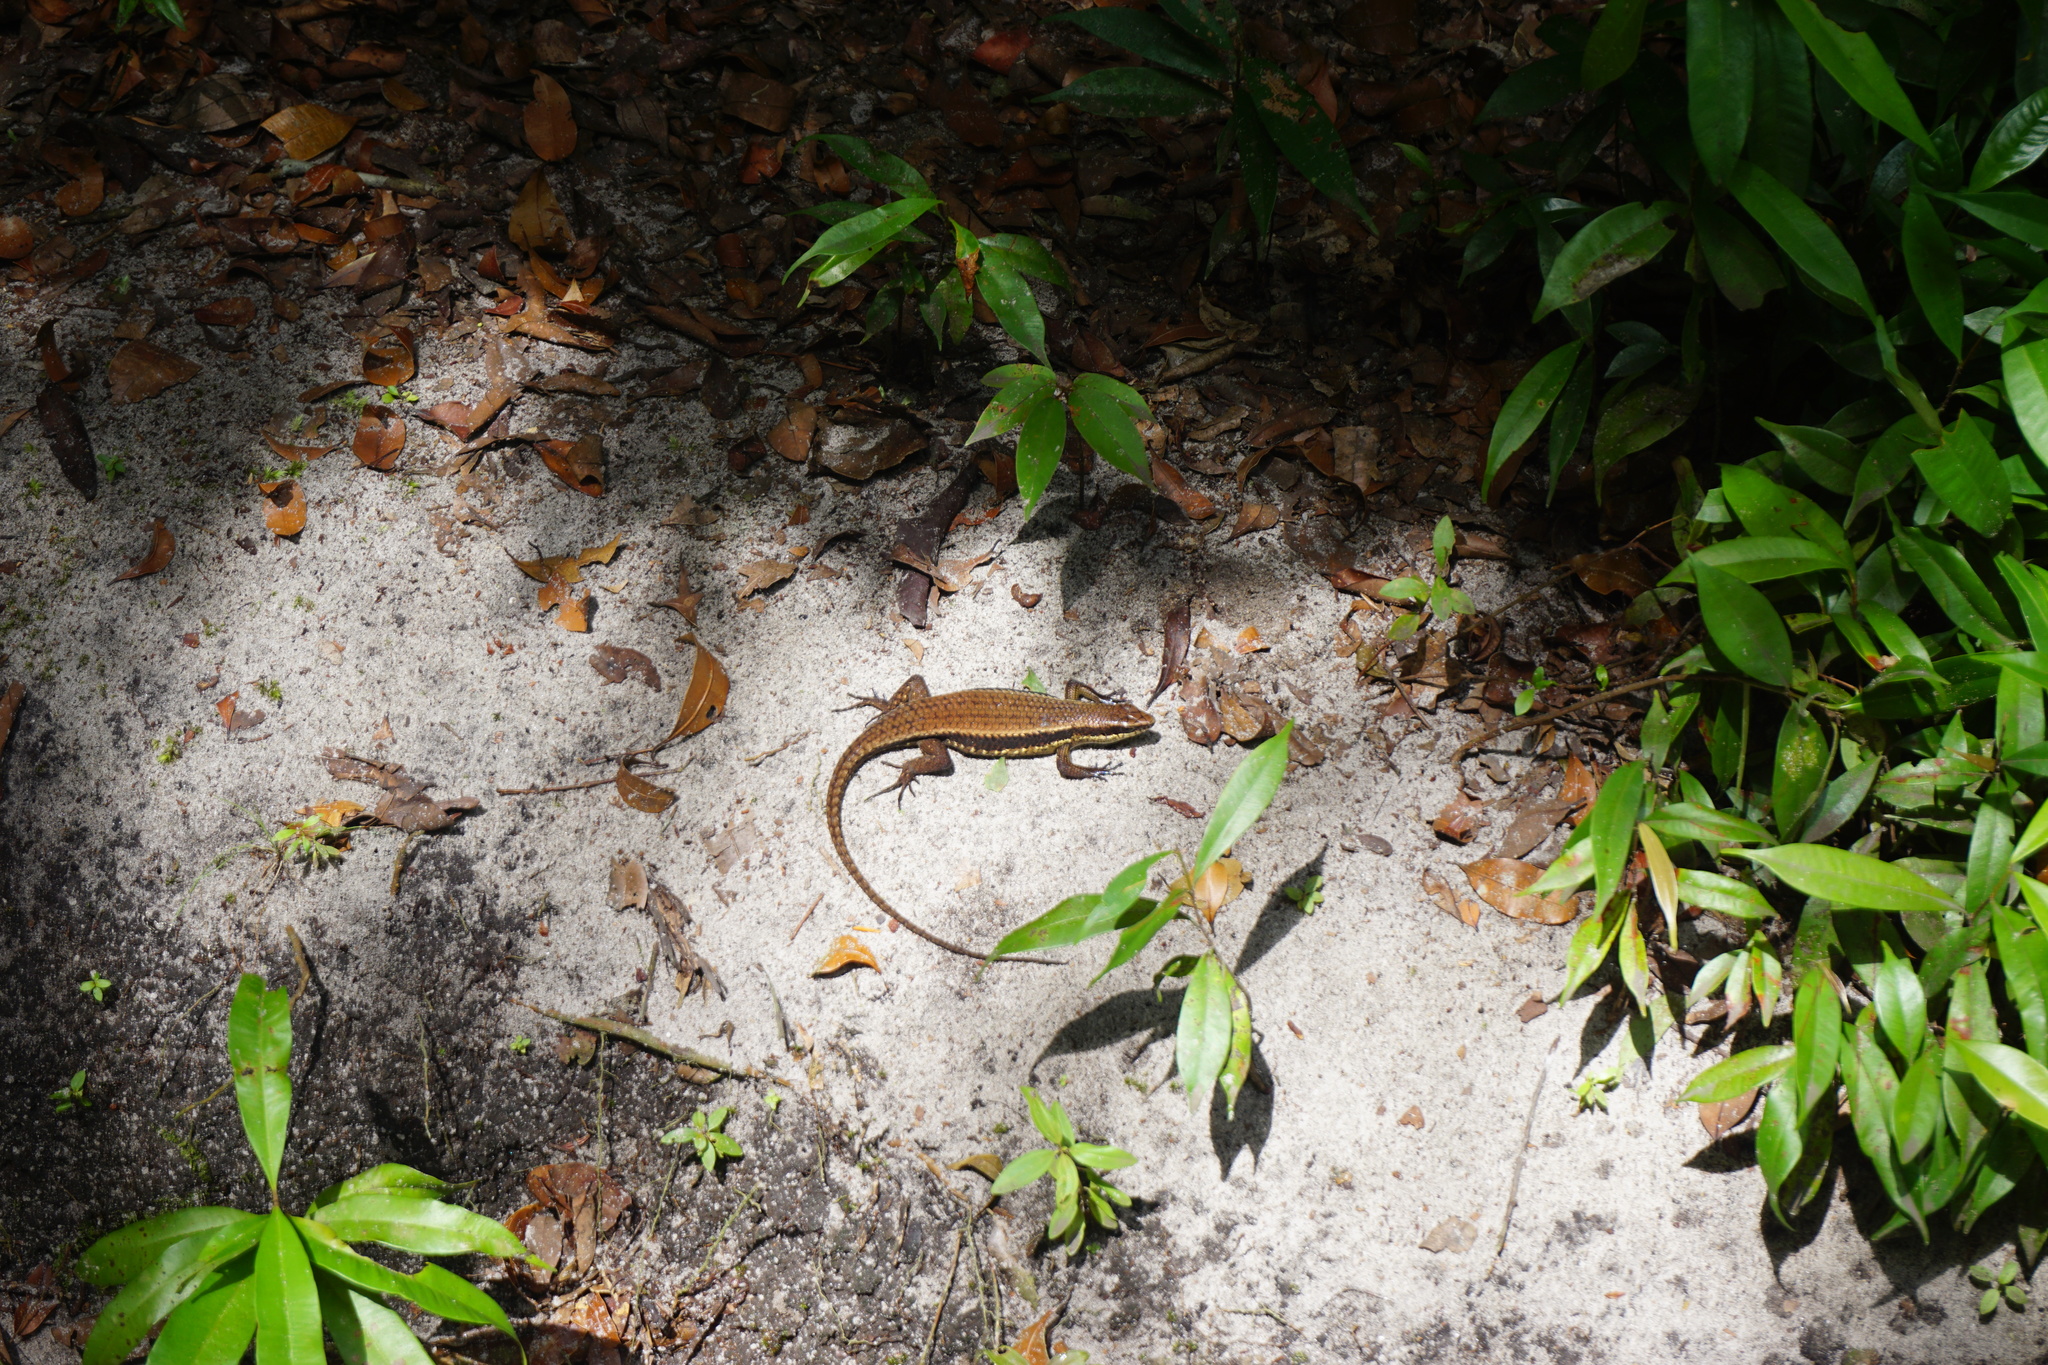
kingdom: Animalia
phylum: Chordata
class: Squamata
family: Scincidae
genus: Eutropis
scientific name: Eutropis rudis
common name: Rough mabuya
